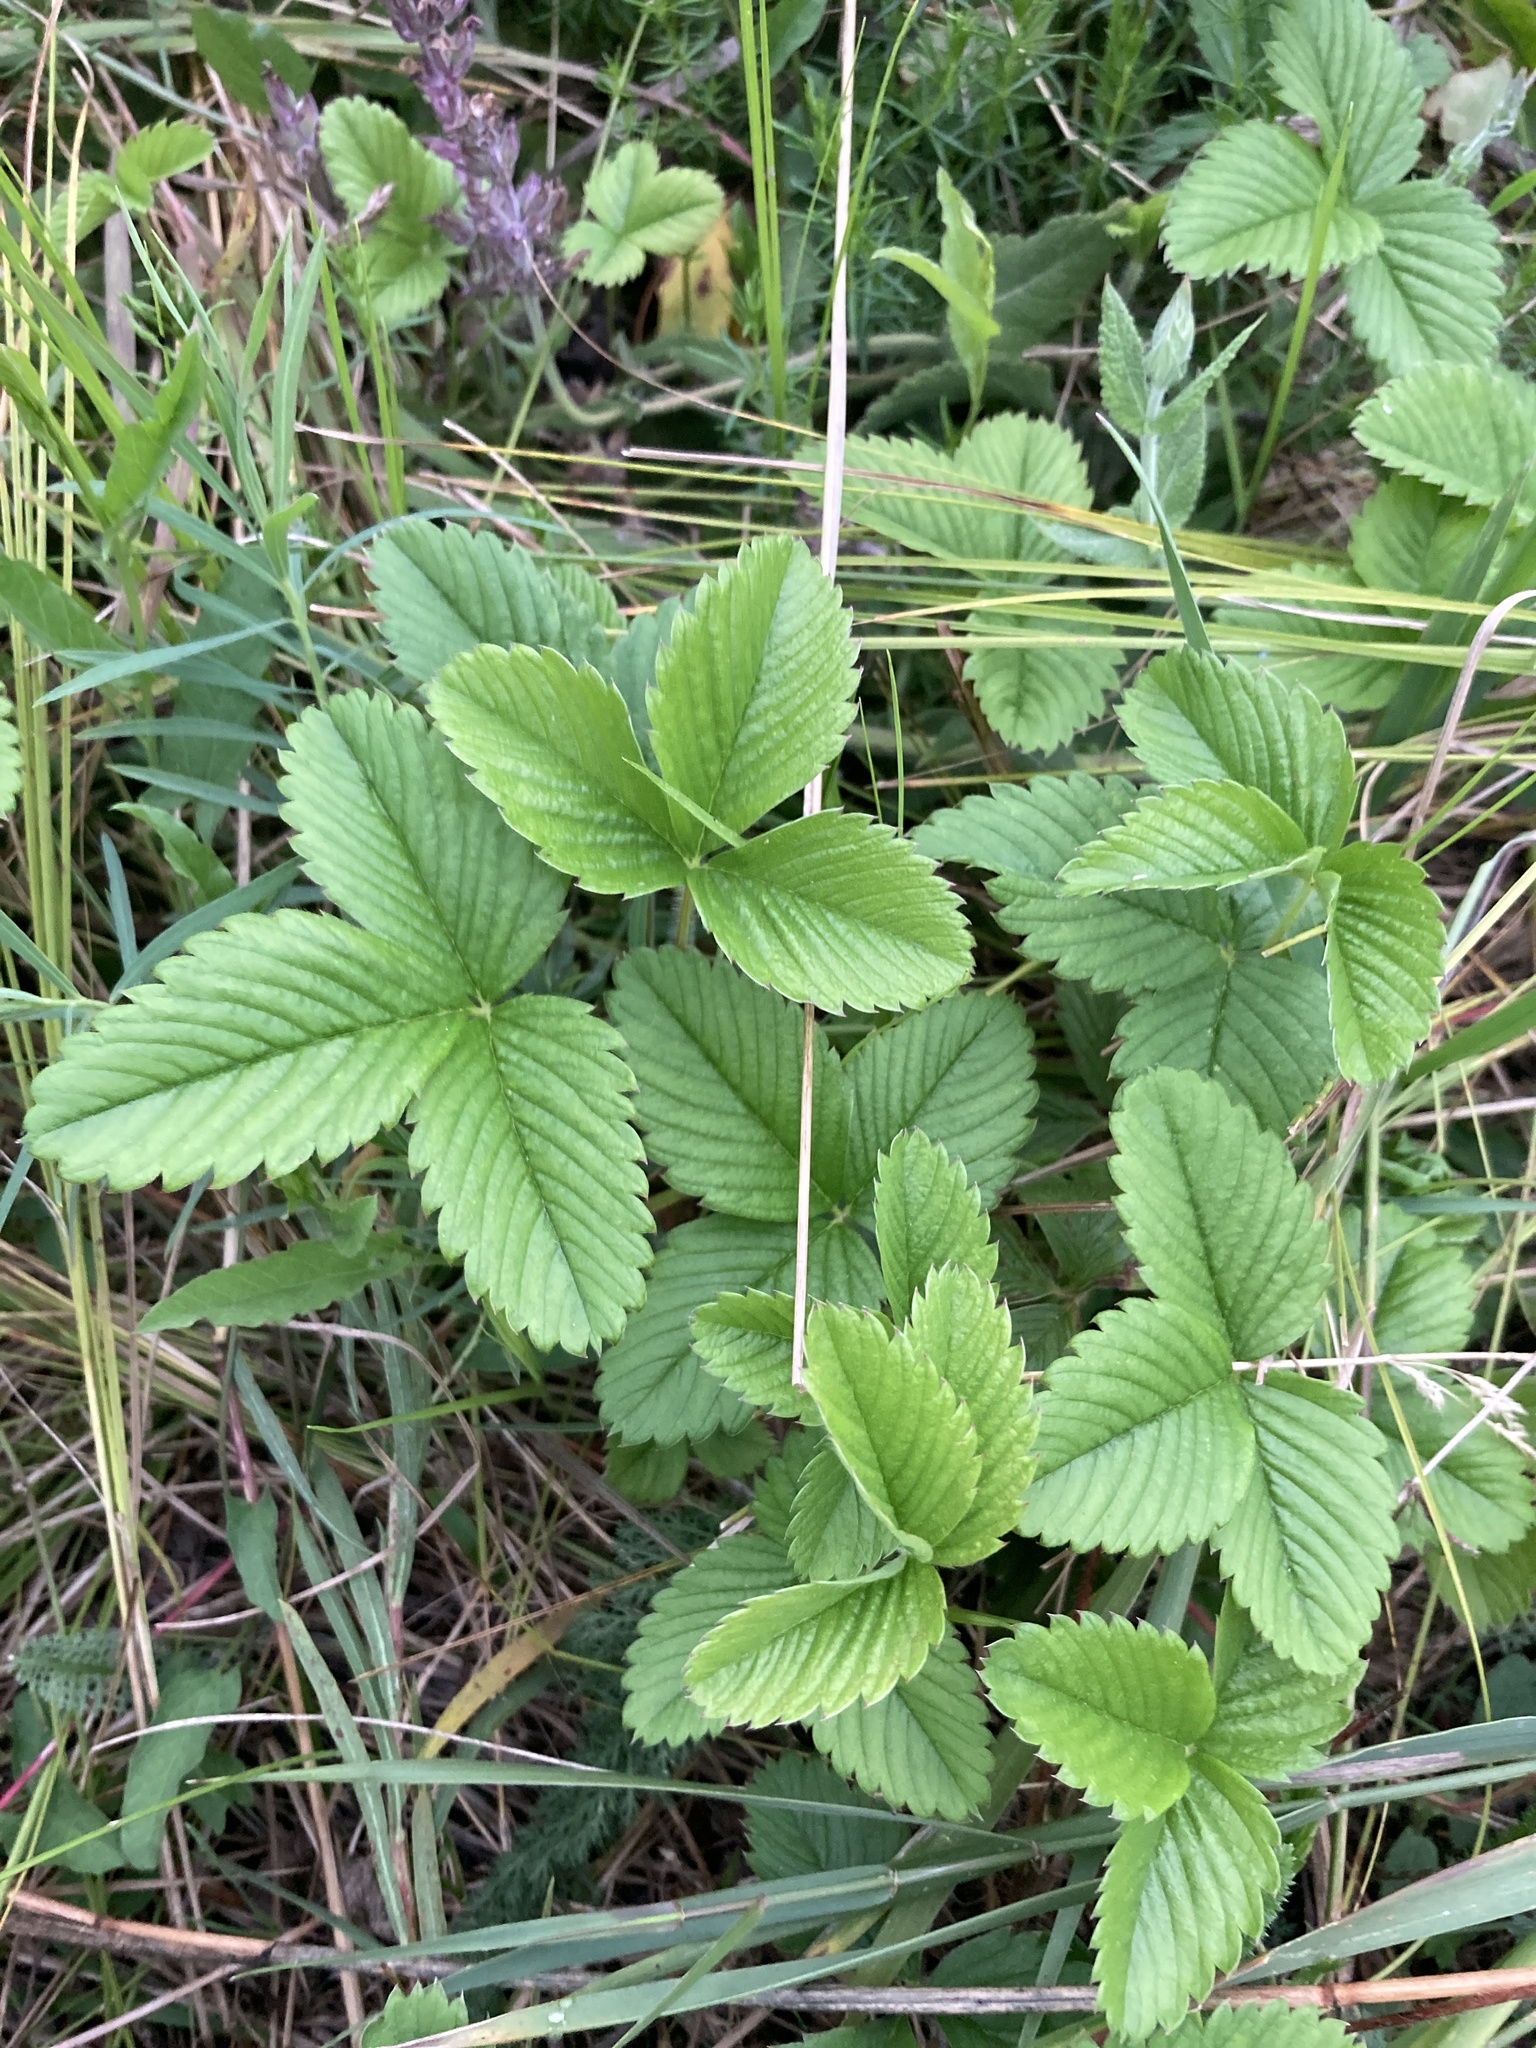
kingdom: Plantae
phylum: Tracheophyta
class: Magnoliopsida
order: Rosales
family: Rosaceae
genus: Fragaria
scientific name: Fragaria viridis
